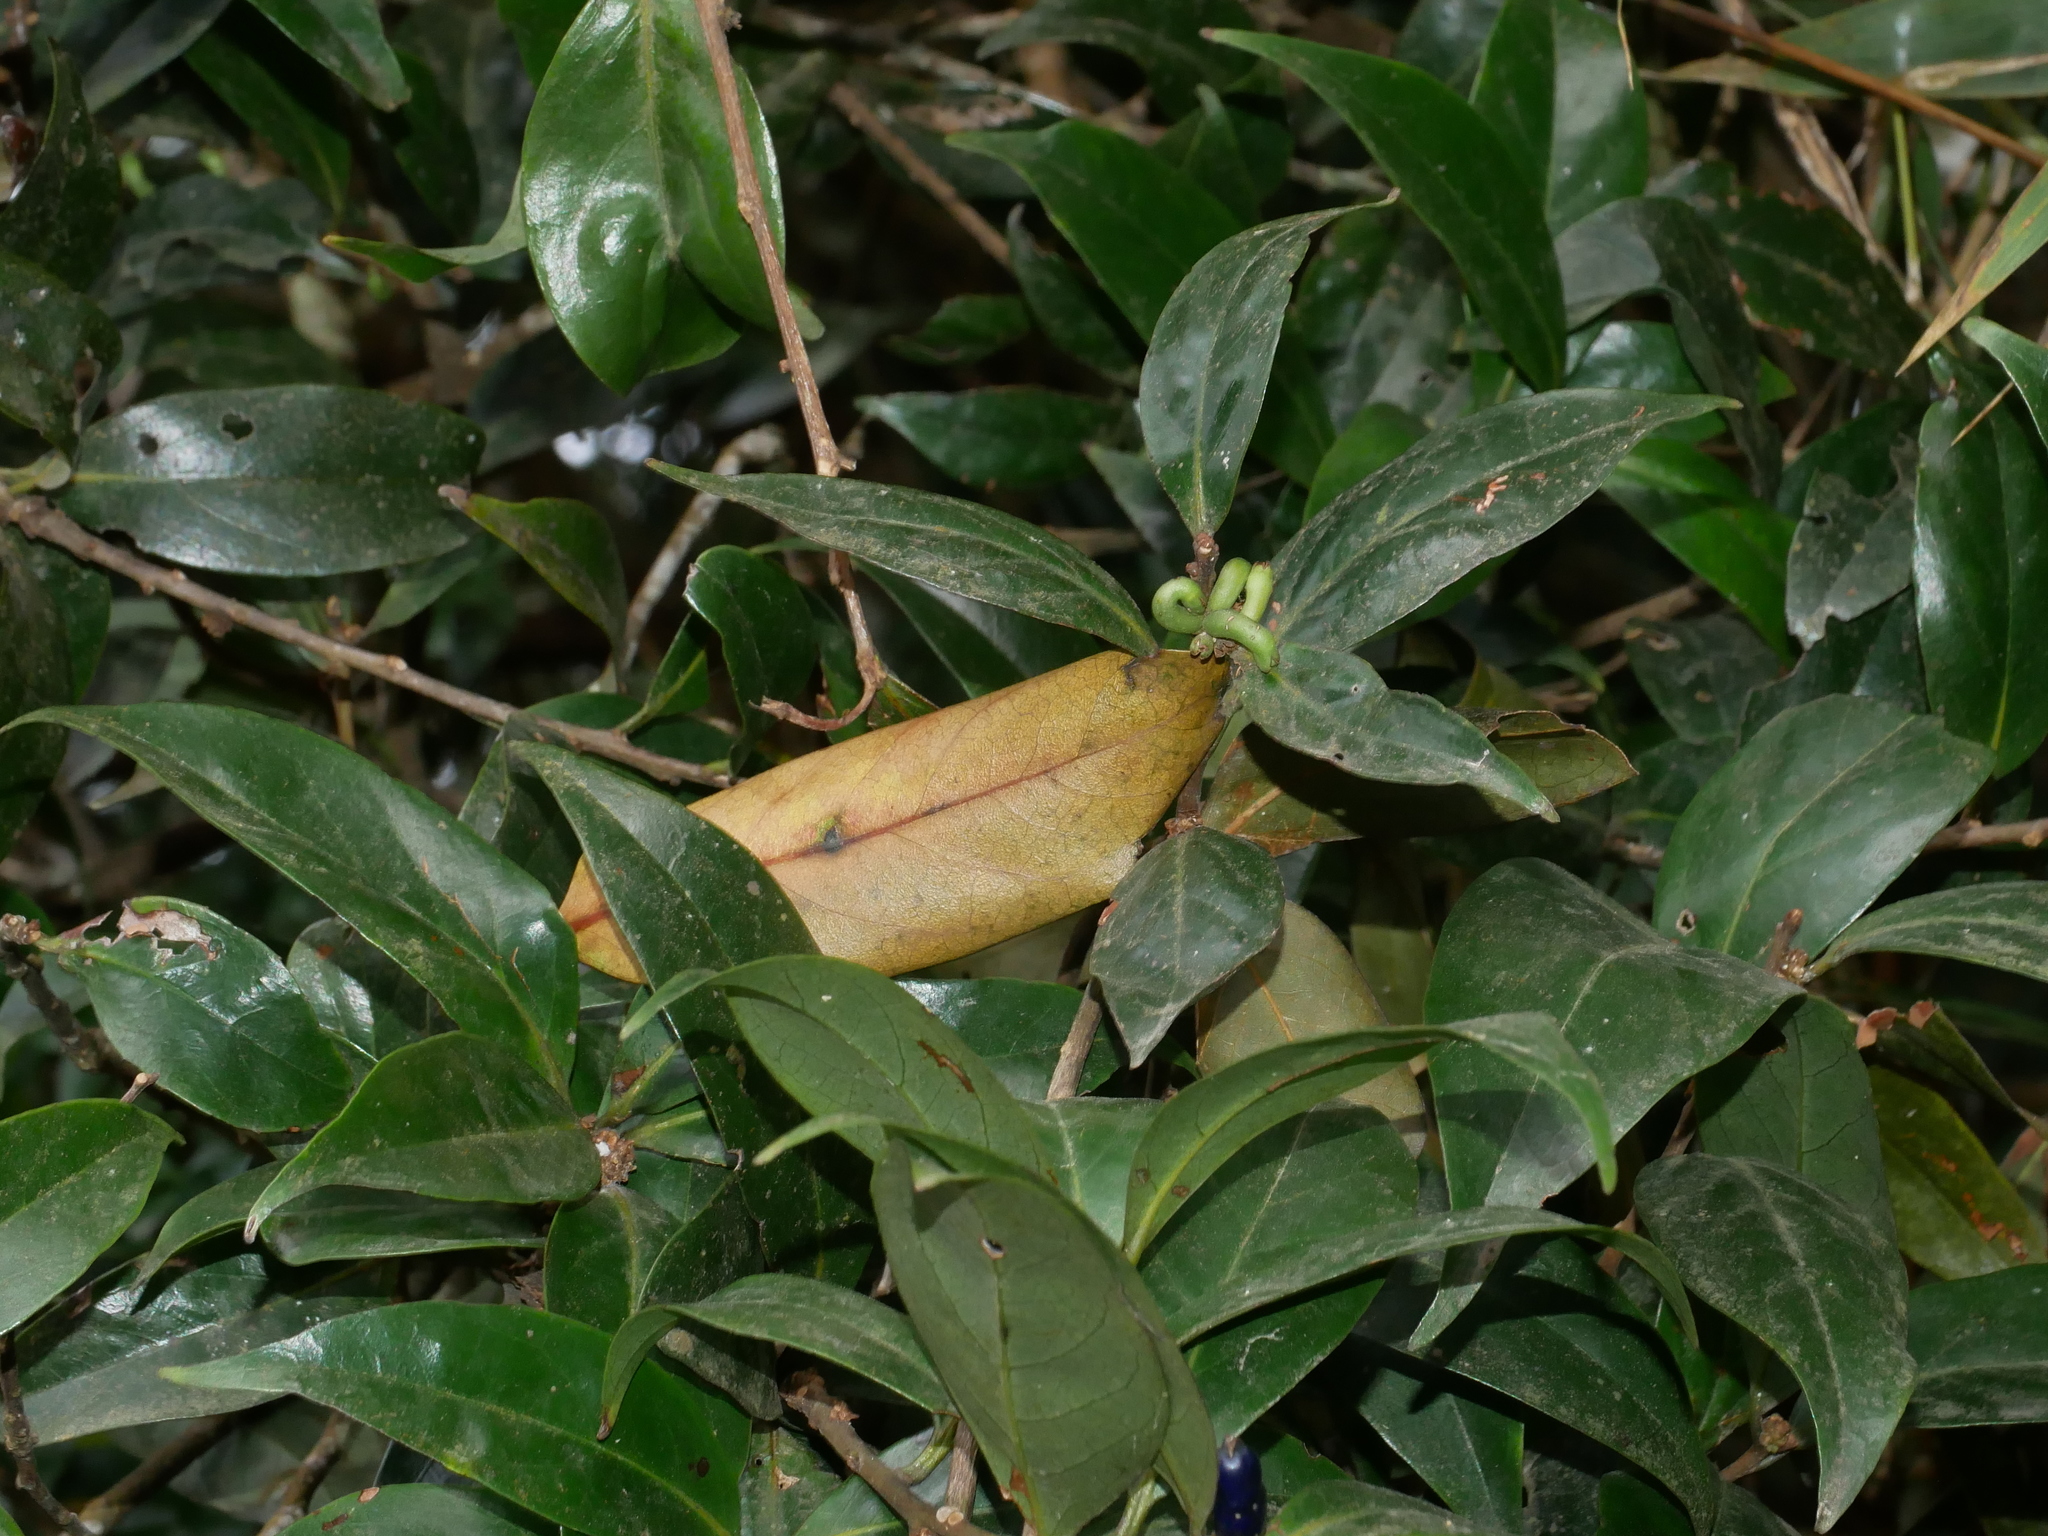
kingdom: Plantae
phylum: Tracheophyta
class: Magnoliopsida
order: Ericales
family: Symplocaceae
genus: Symplocos
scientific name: Symplocos congesta
